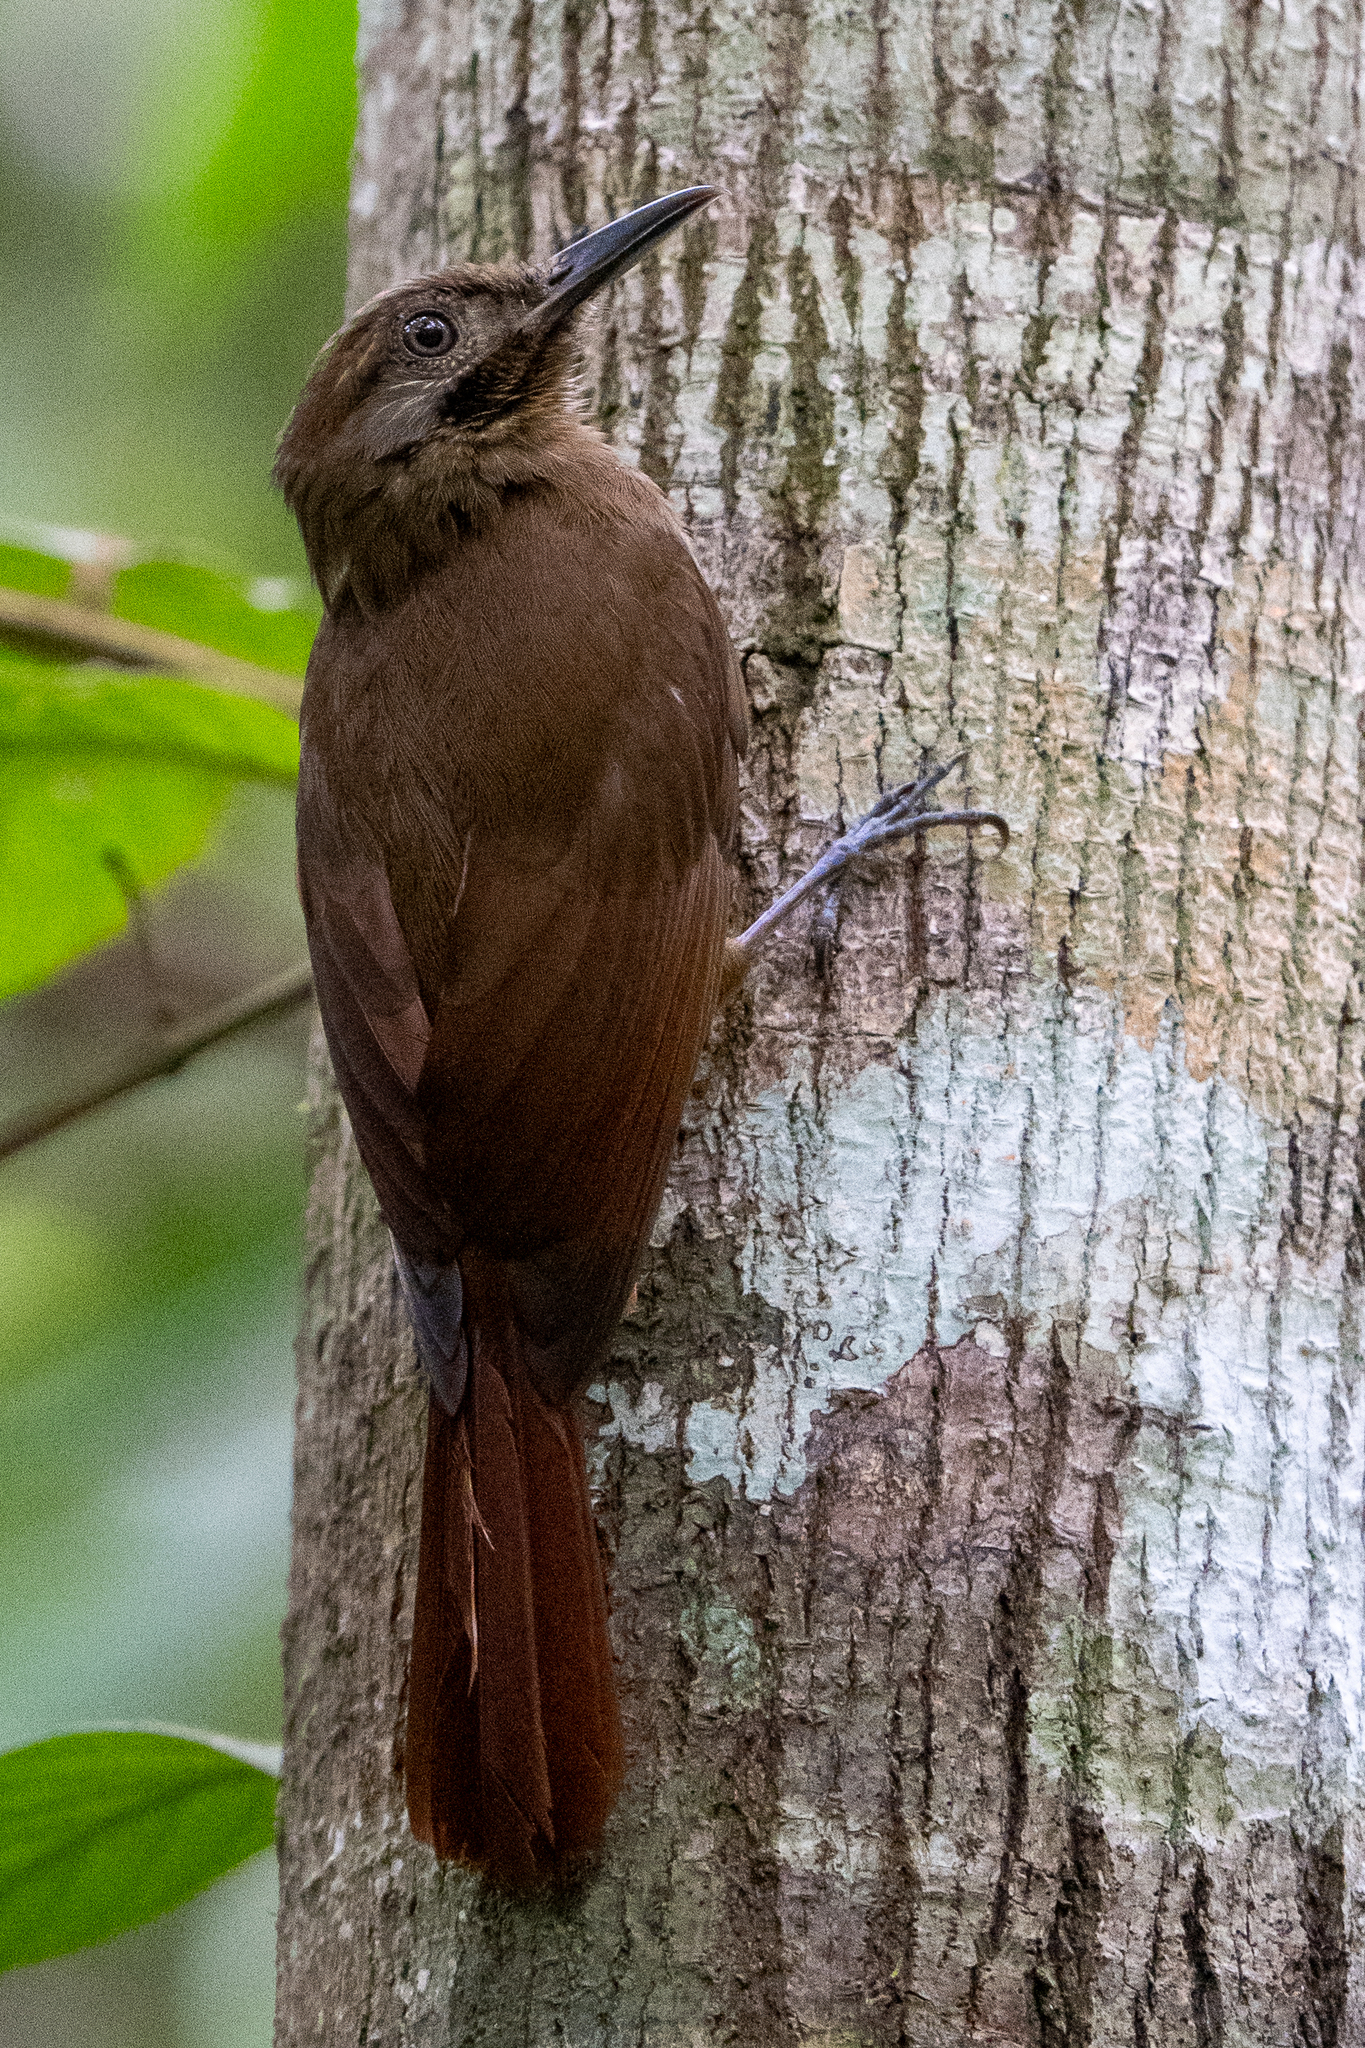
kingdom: Animalia
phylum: Chordata
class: Aves
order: Passeriformes
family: Furnariidae
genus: Dendrocincla
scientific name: Dendrocincla fuliginosa
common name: Plain-brown woodcreeper
